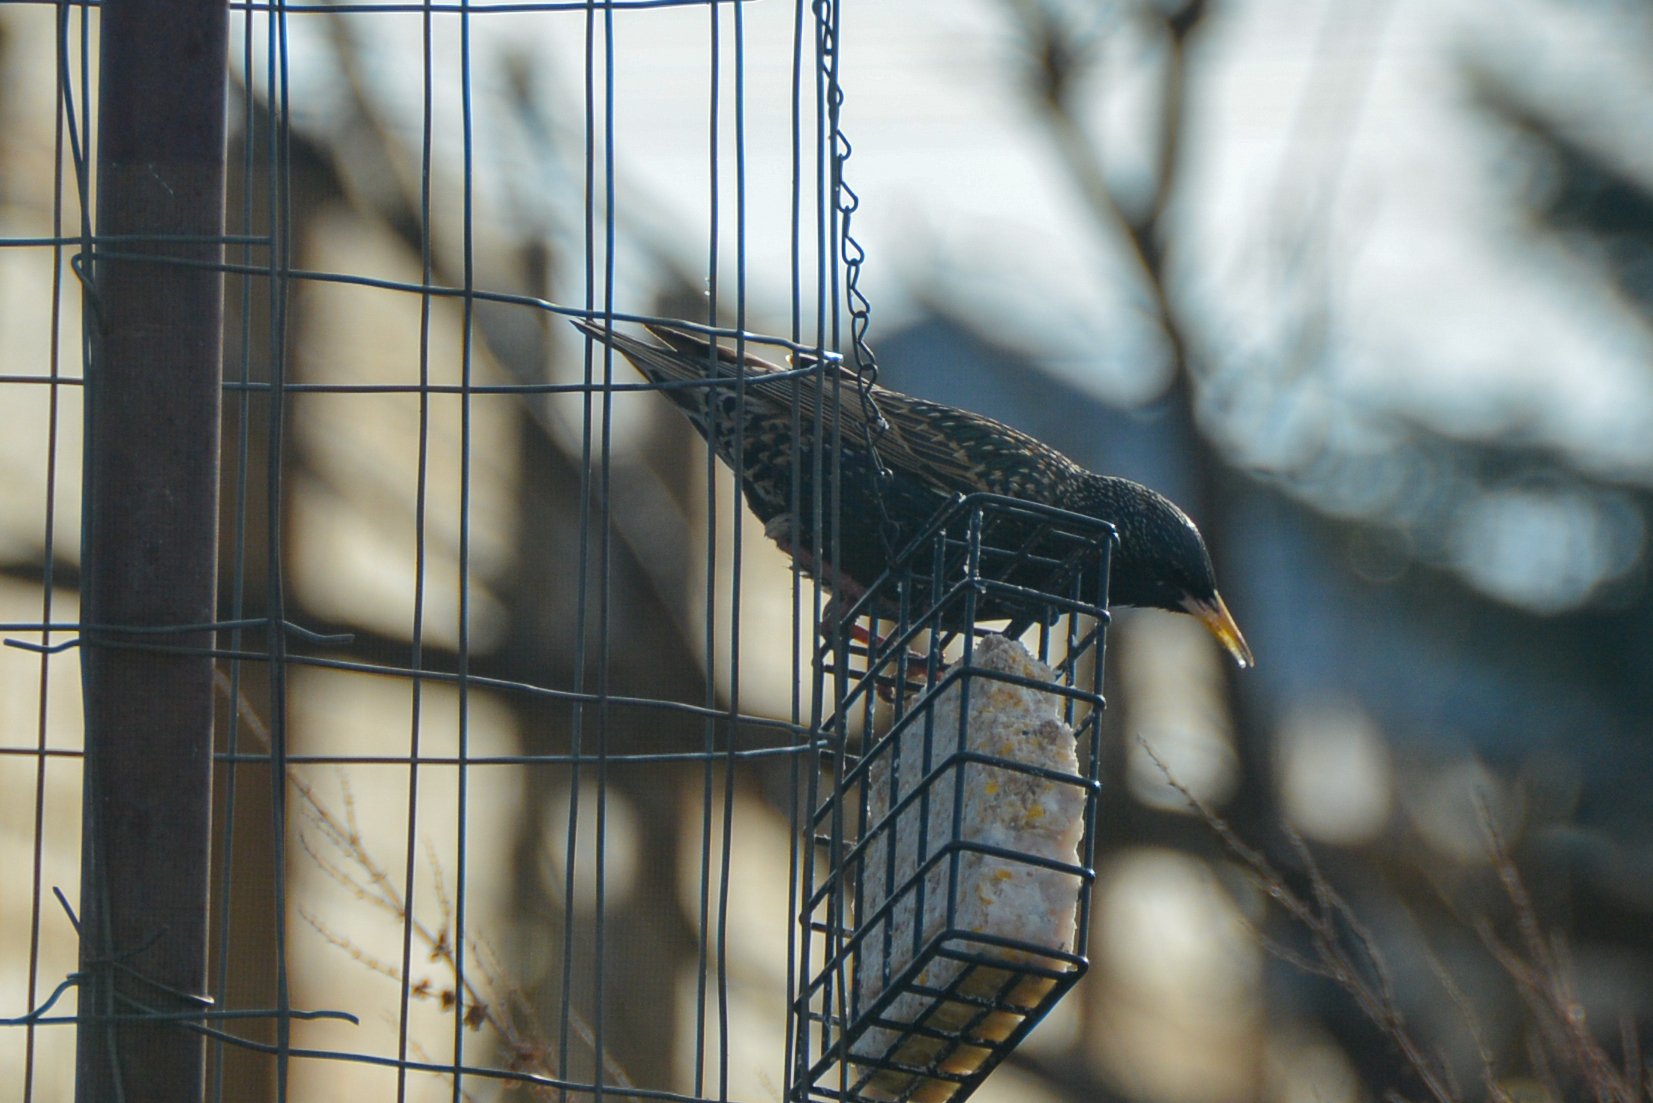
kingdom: Animalia
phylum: Chordata
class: Aves
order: Passeriformes
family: Sturnidae
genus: Sturnus
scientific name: Sturnus vulgaris
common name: Common starling
